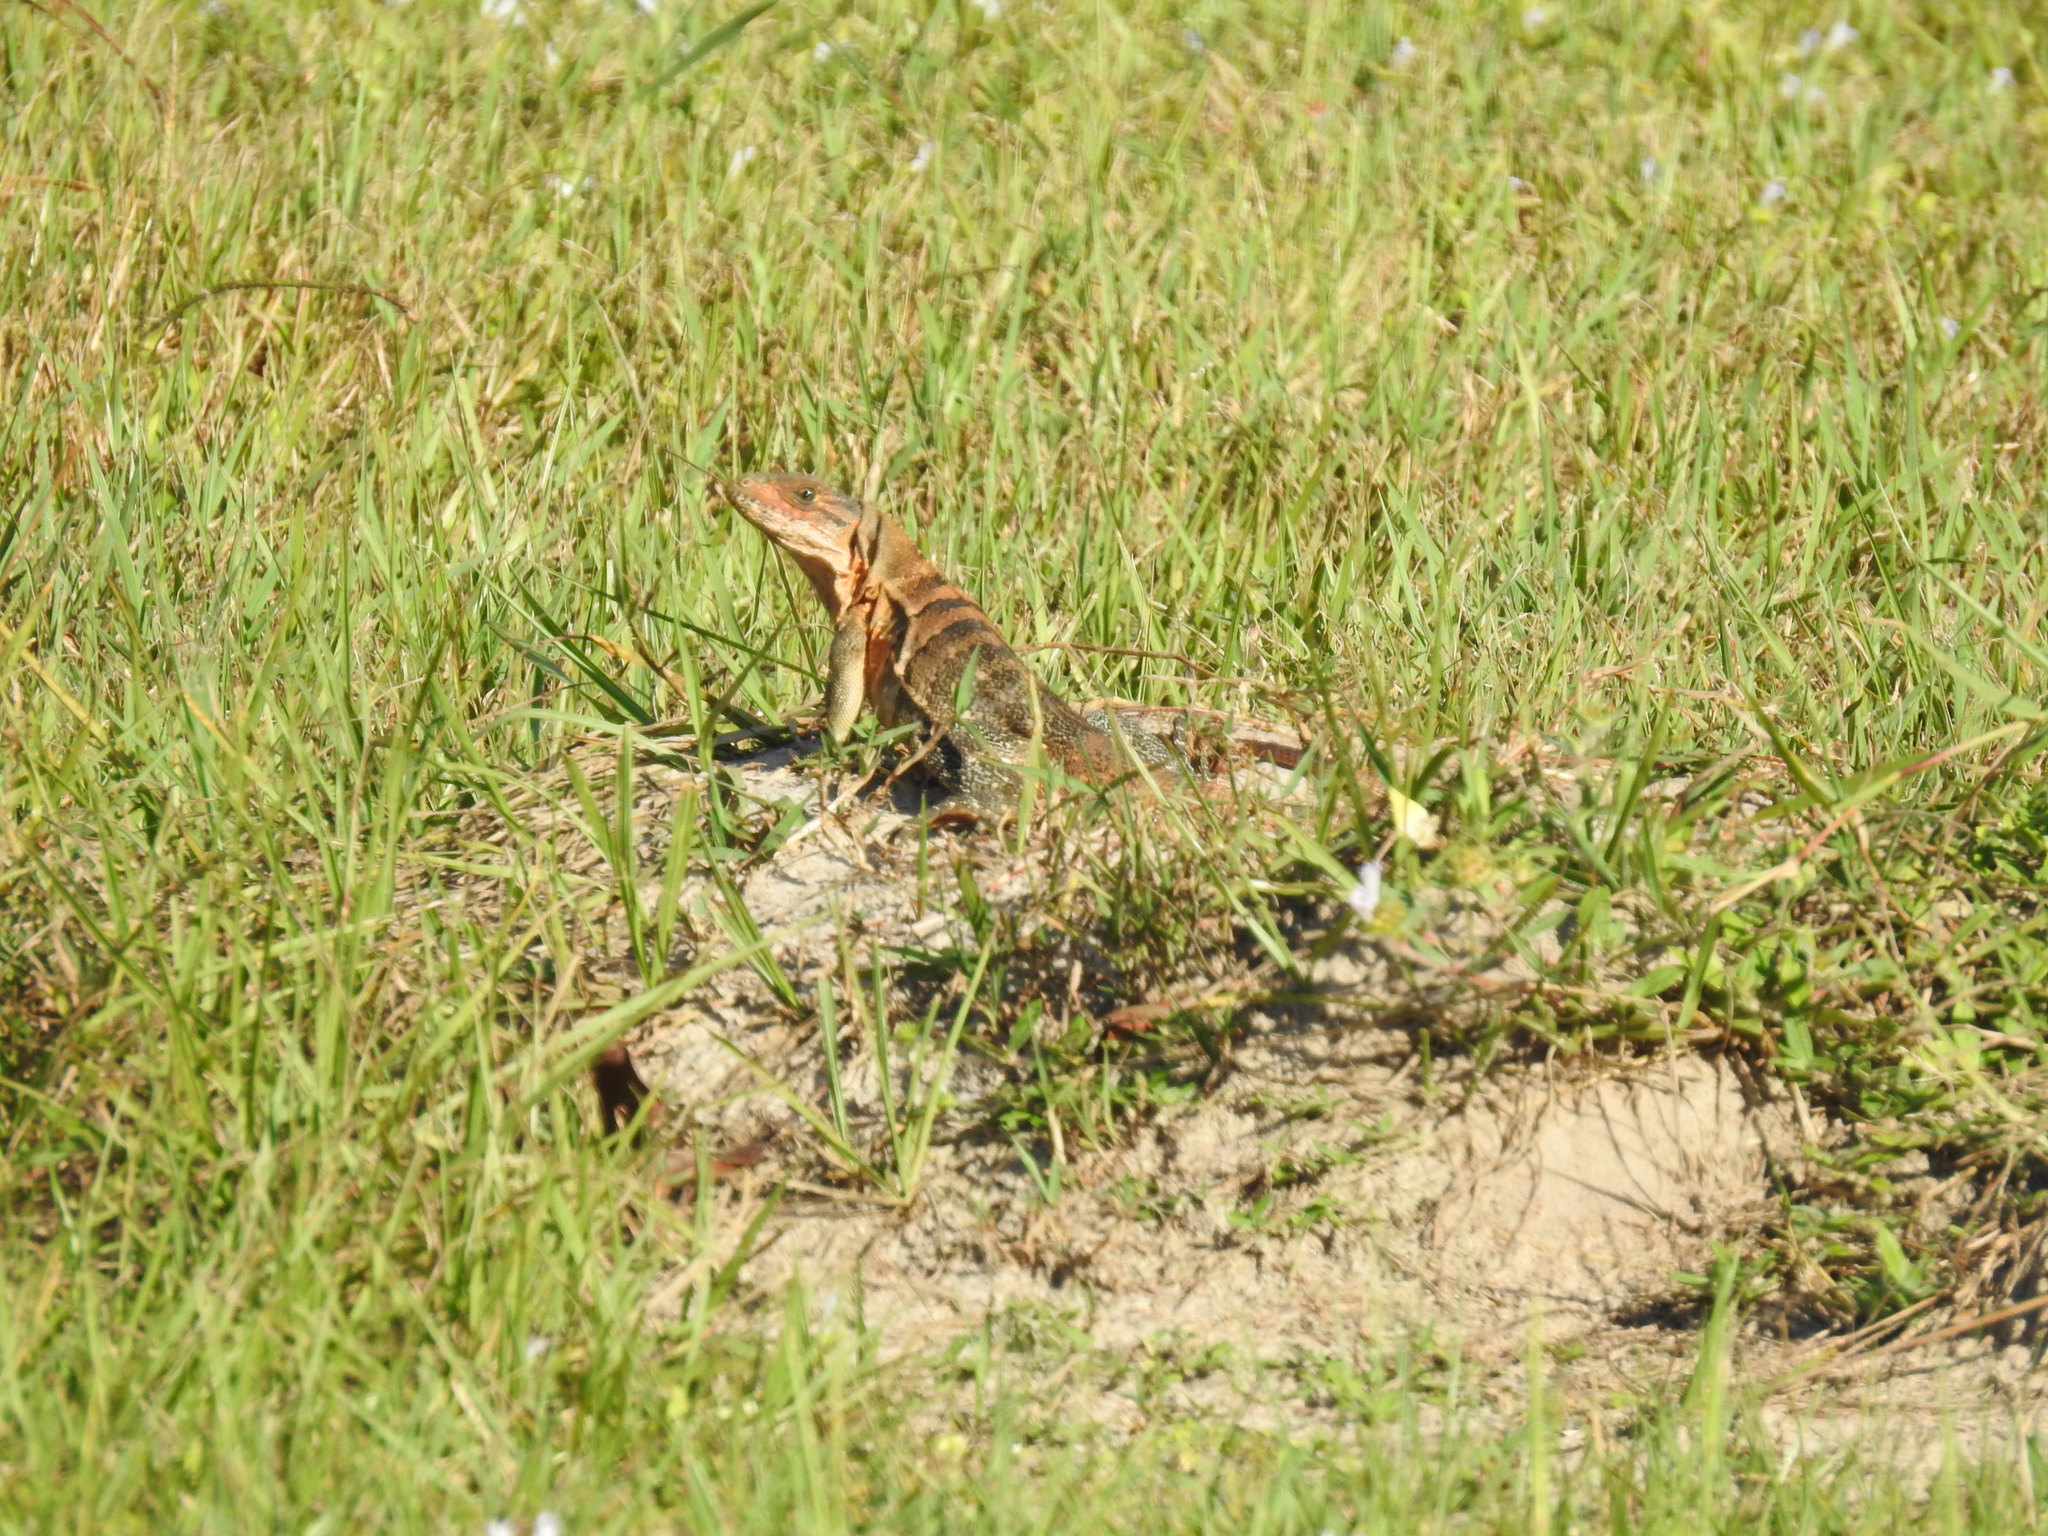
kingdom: Animalia
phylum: Chordata
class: Squamata
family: Iguanidae
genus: Ctenosaura
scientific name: Ctenosaura similis
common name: Black spiny-tailed iguana
